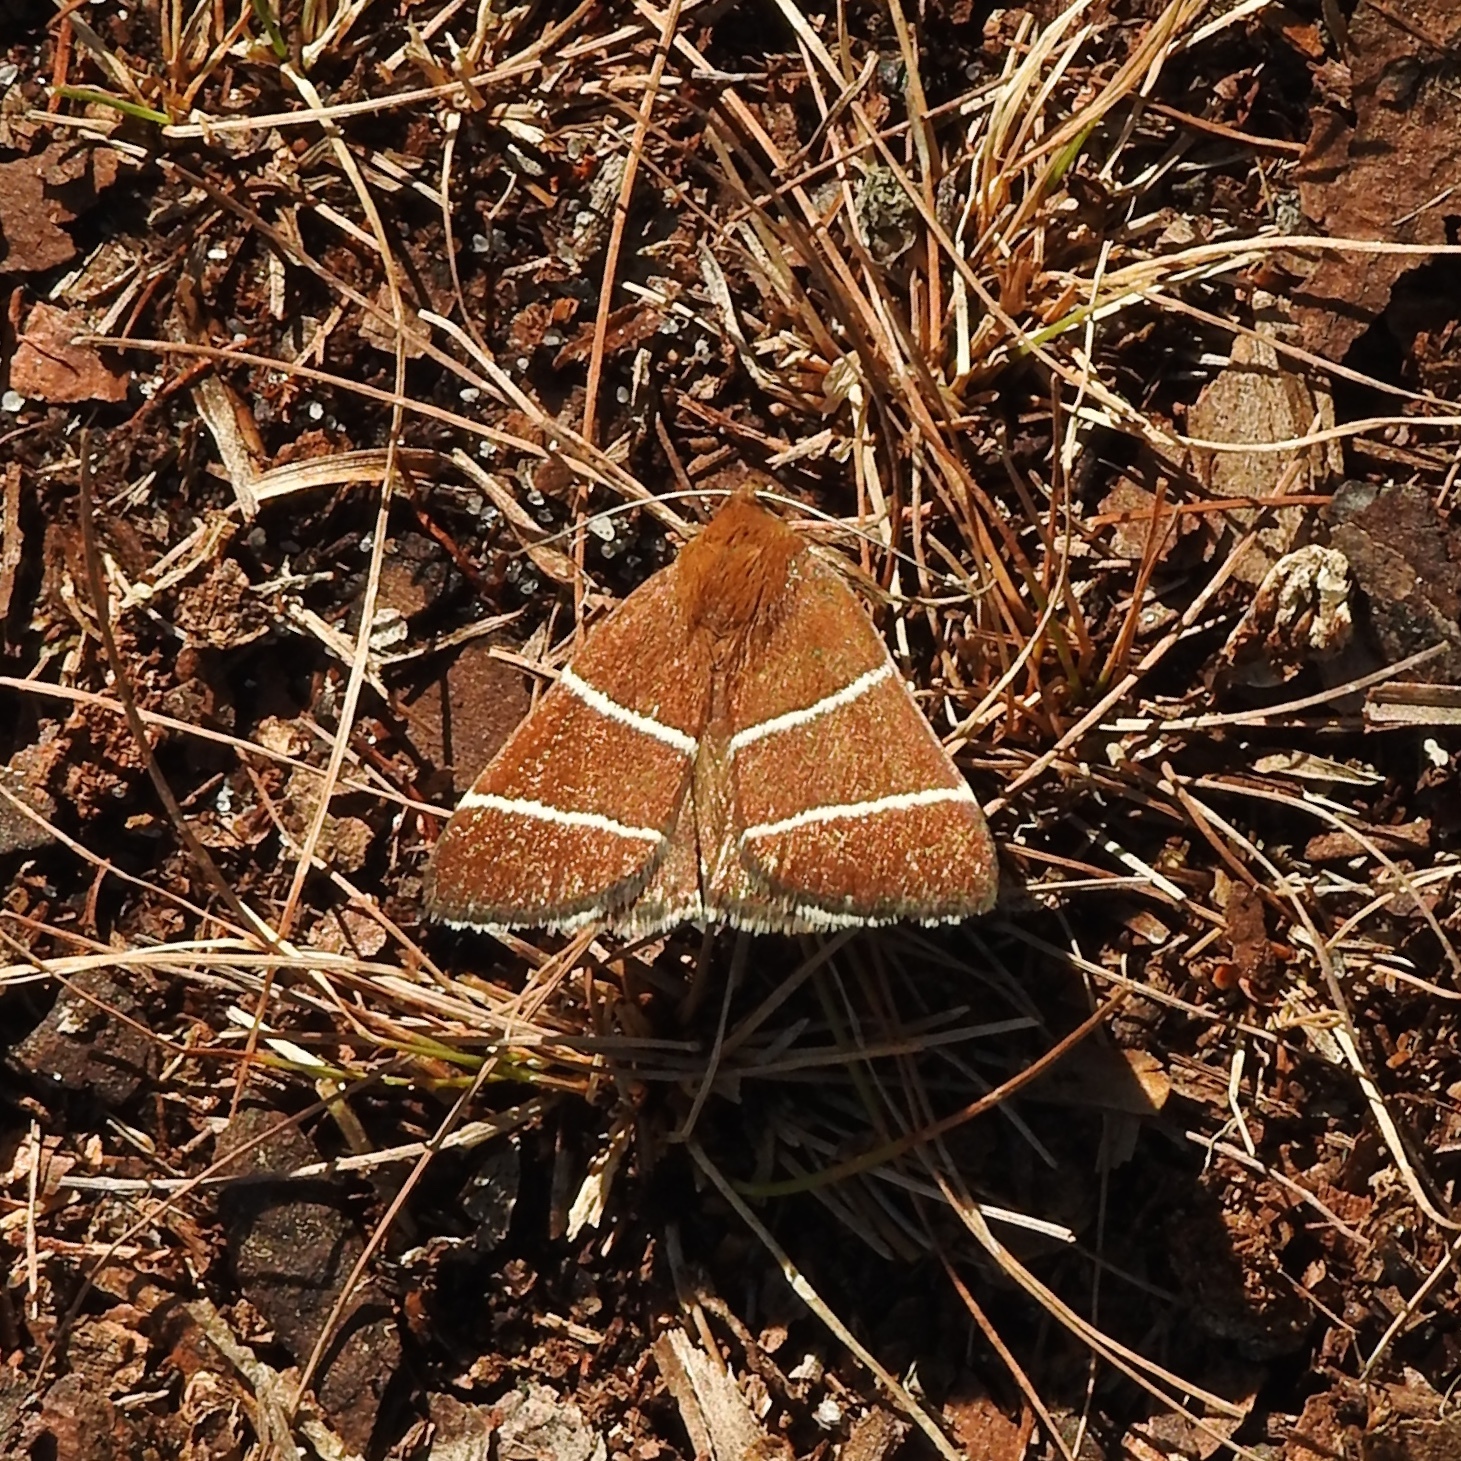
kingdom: Animalia
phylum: Arthropoda
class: Insecta
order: Lepidoptera
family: Erebidae
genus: Argyrostrotis
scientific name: Argyrostrotis quadrifilaris
